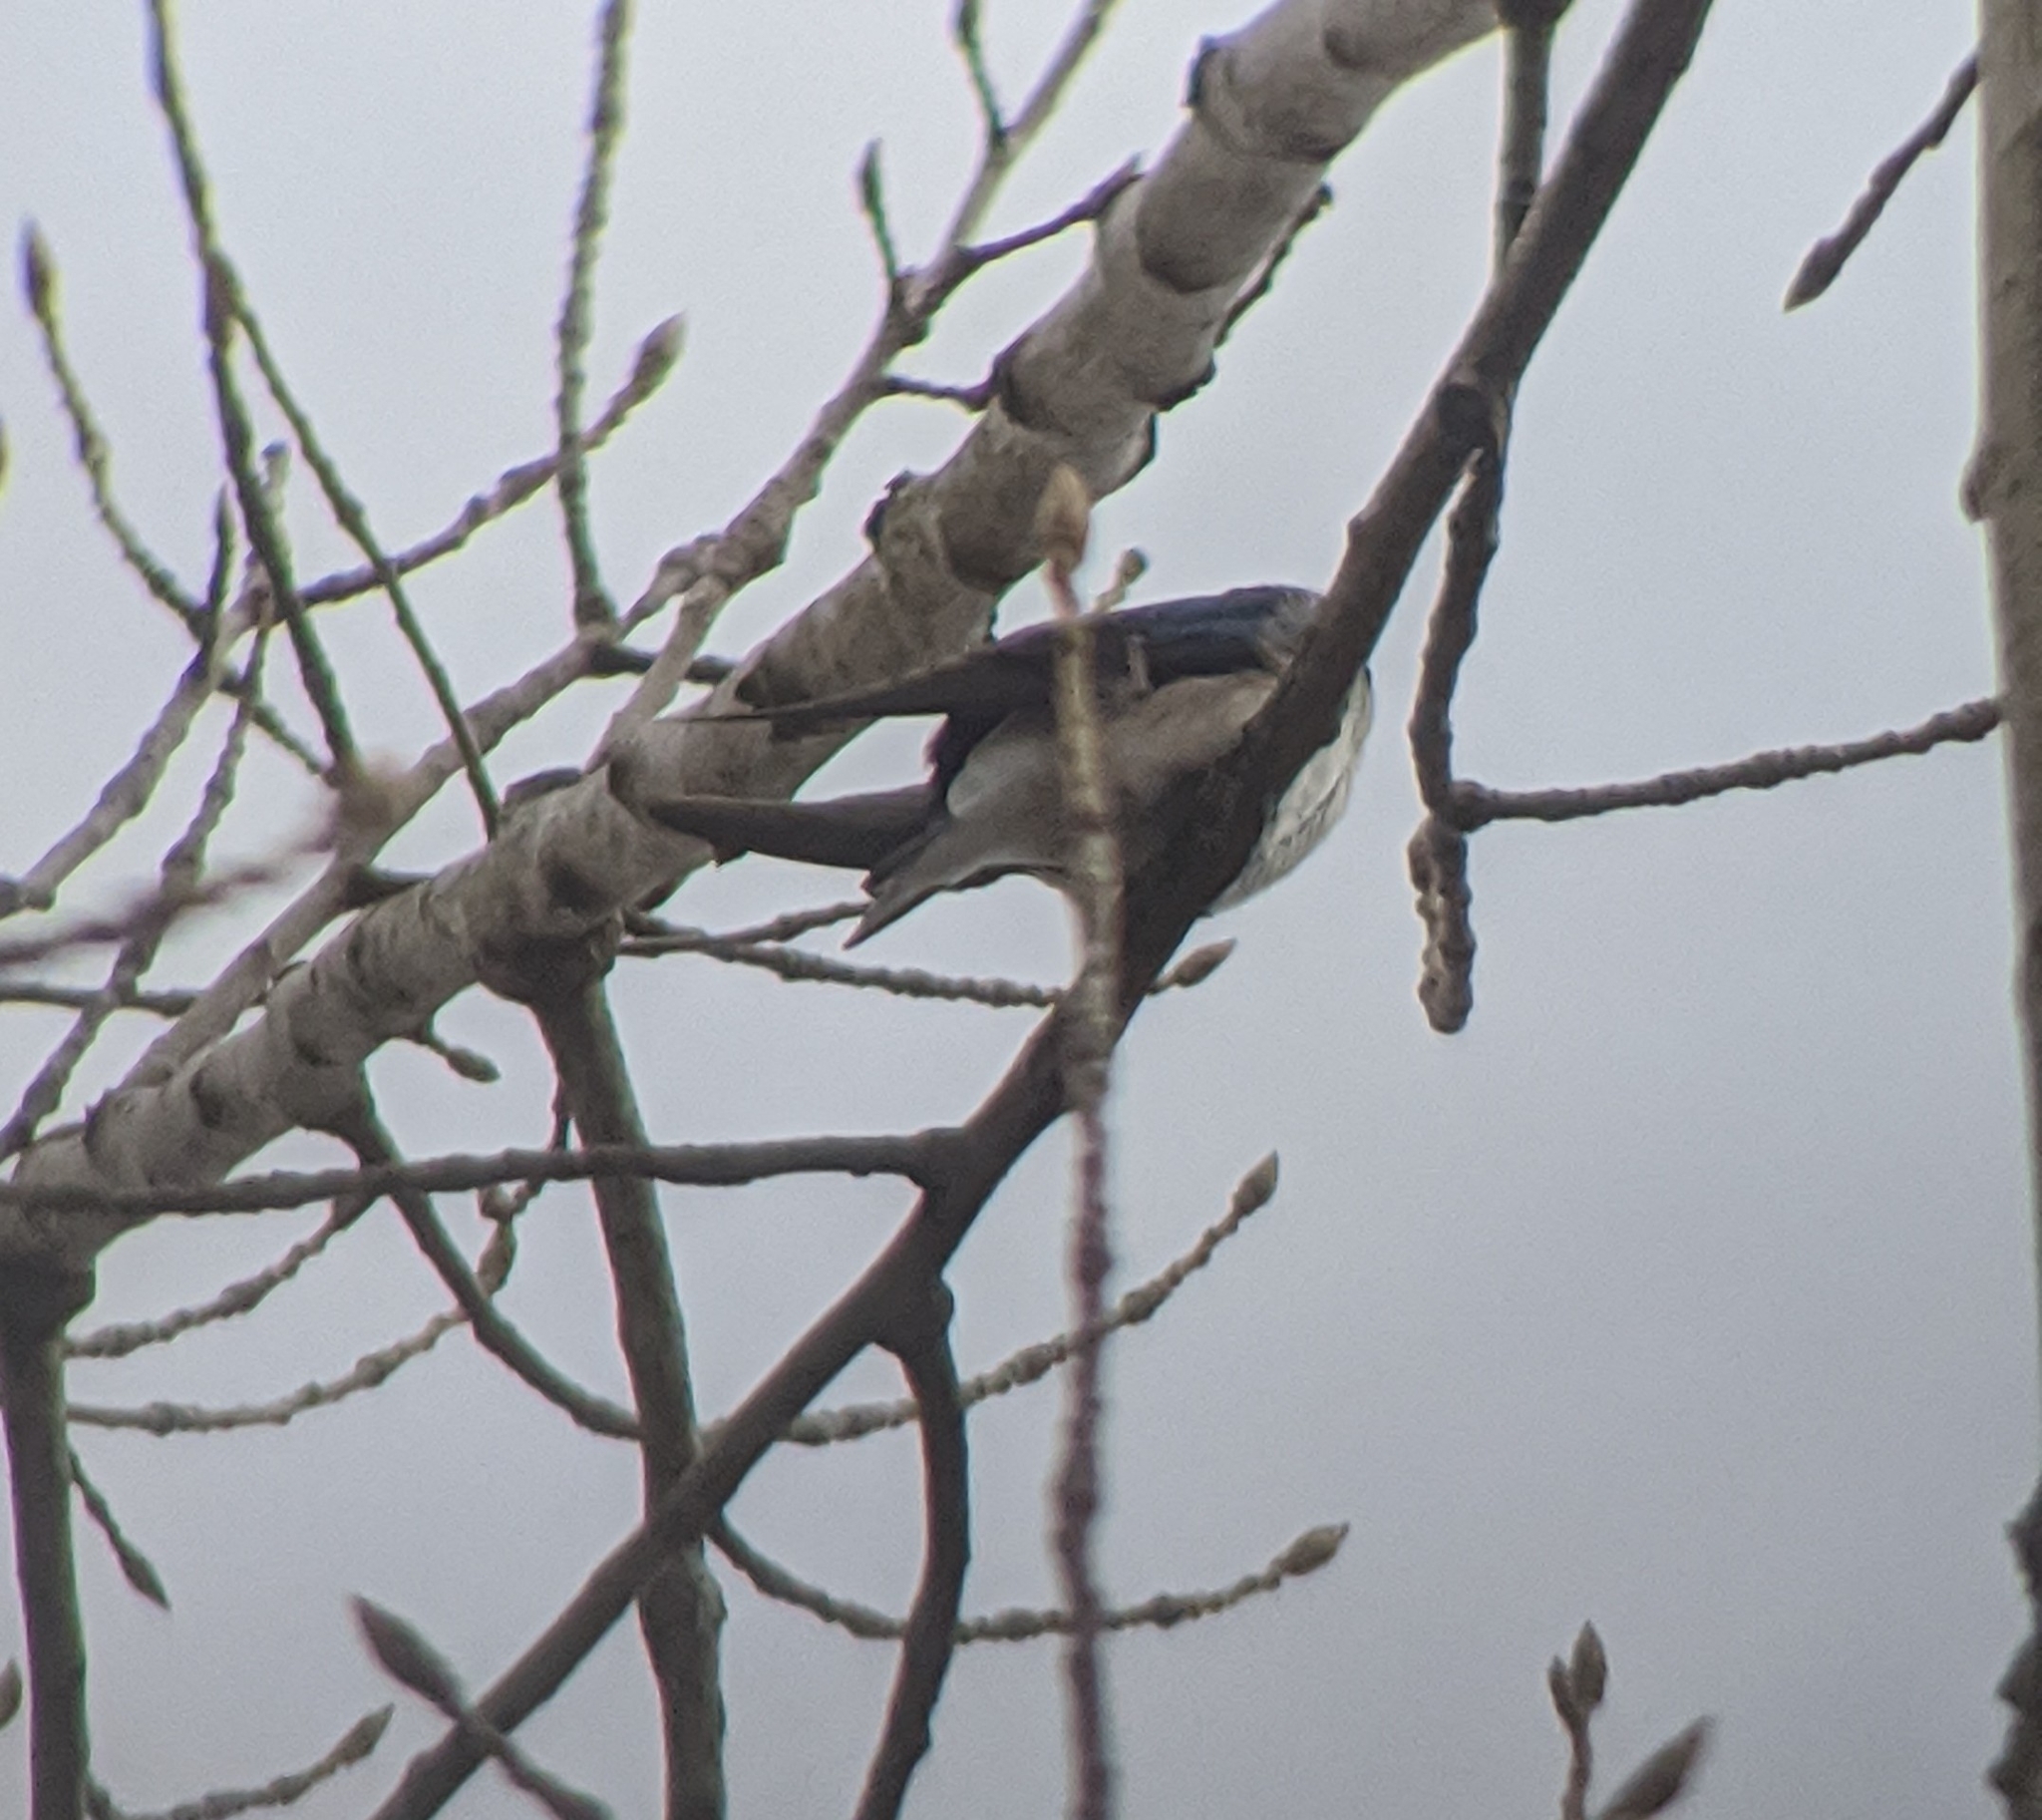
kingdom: Animalia
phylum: Chordata
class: Aves
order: Passeriformes
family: Hirundinidae
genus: Tachycineta
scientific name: Tachycineta bicolor
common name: Tree swallow
